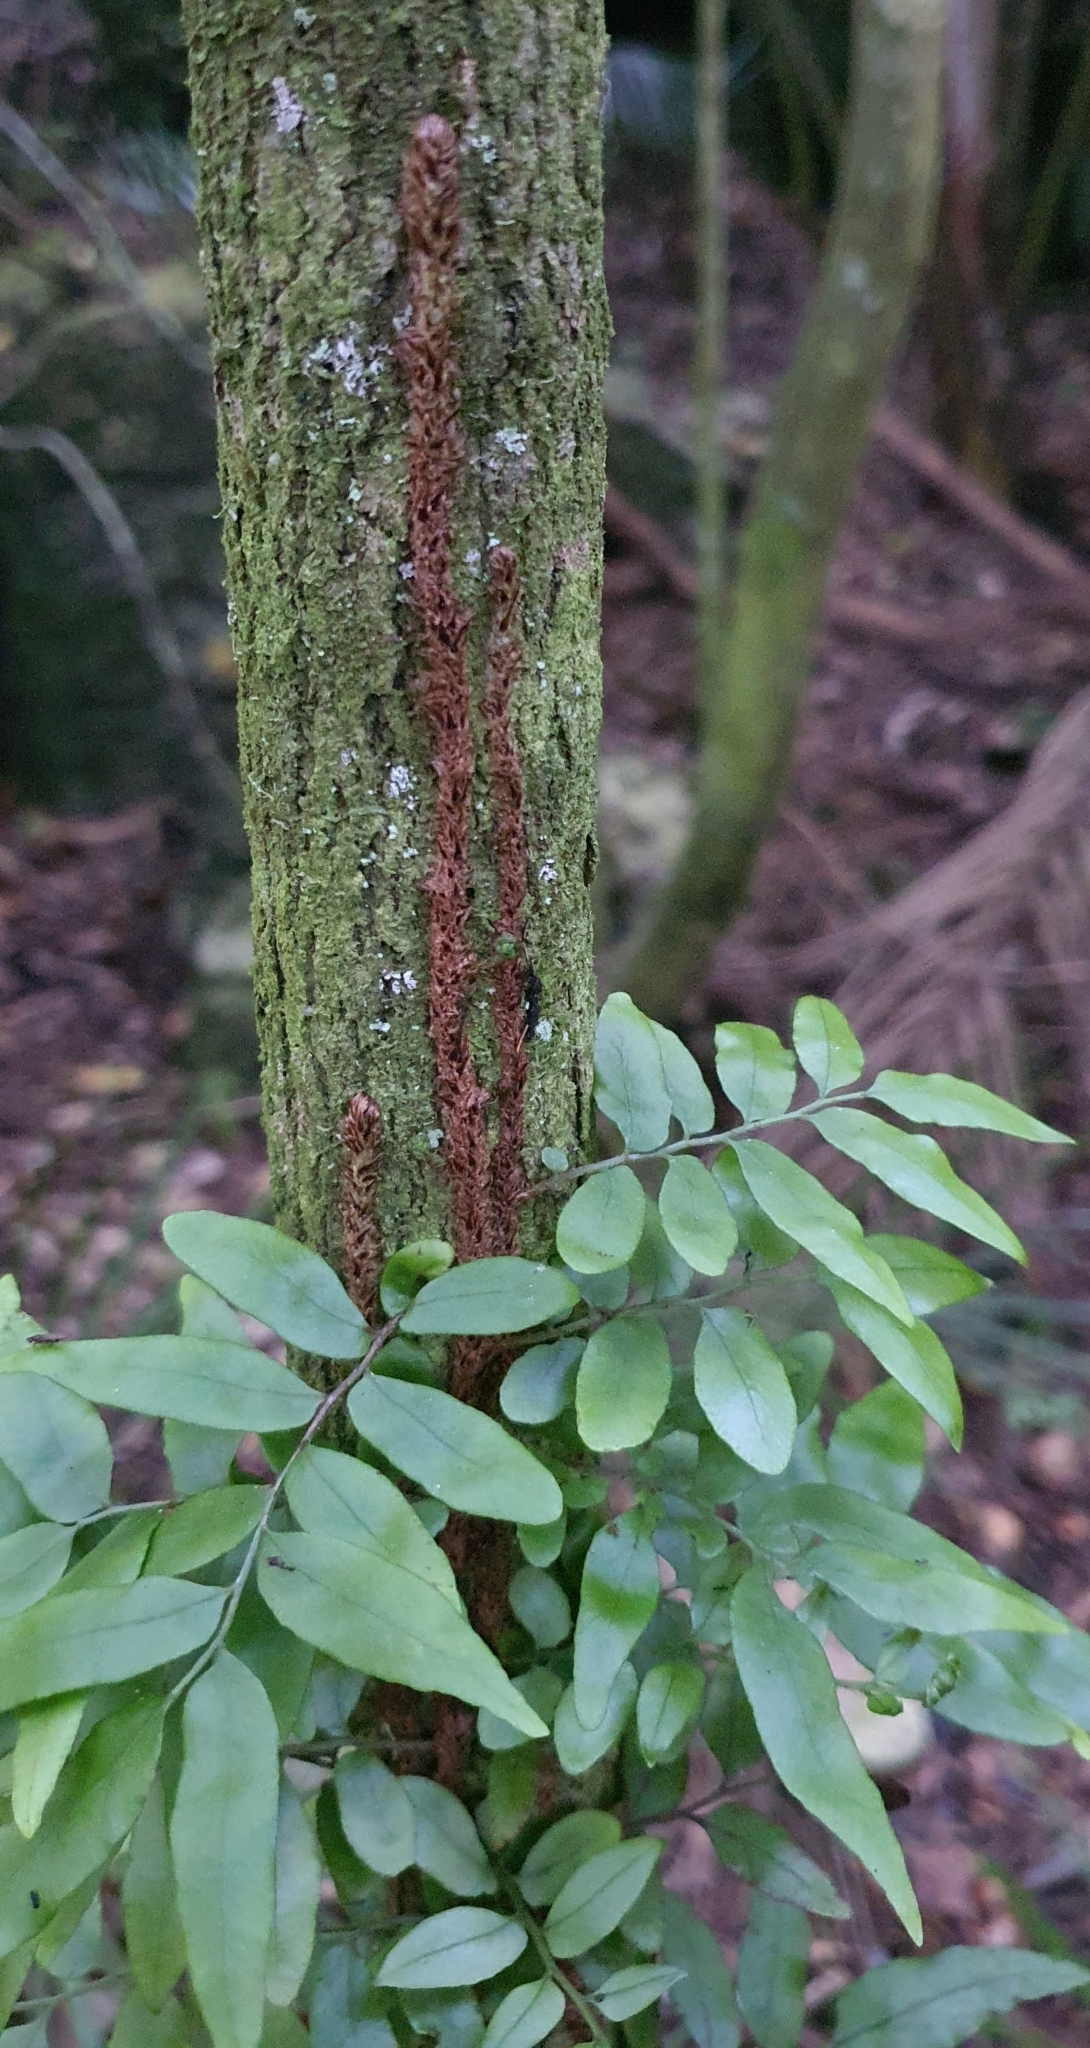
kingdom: Plantae
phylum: Tracheophyta
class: Polypodiopsida
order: Polypodiales
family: Tectariaceae
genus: Arthropteris
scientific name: Arthropteris tenella
